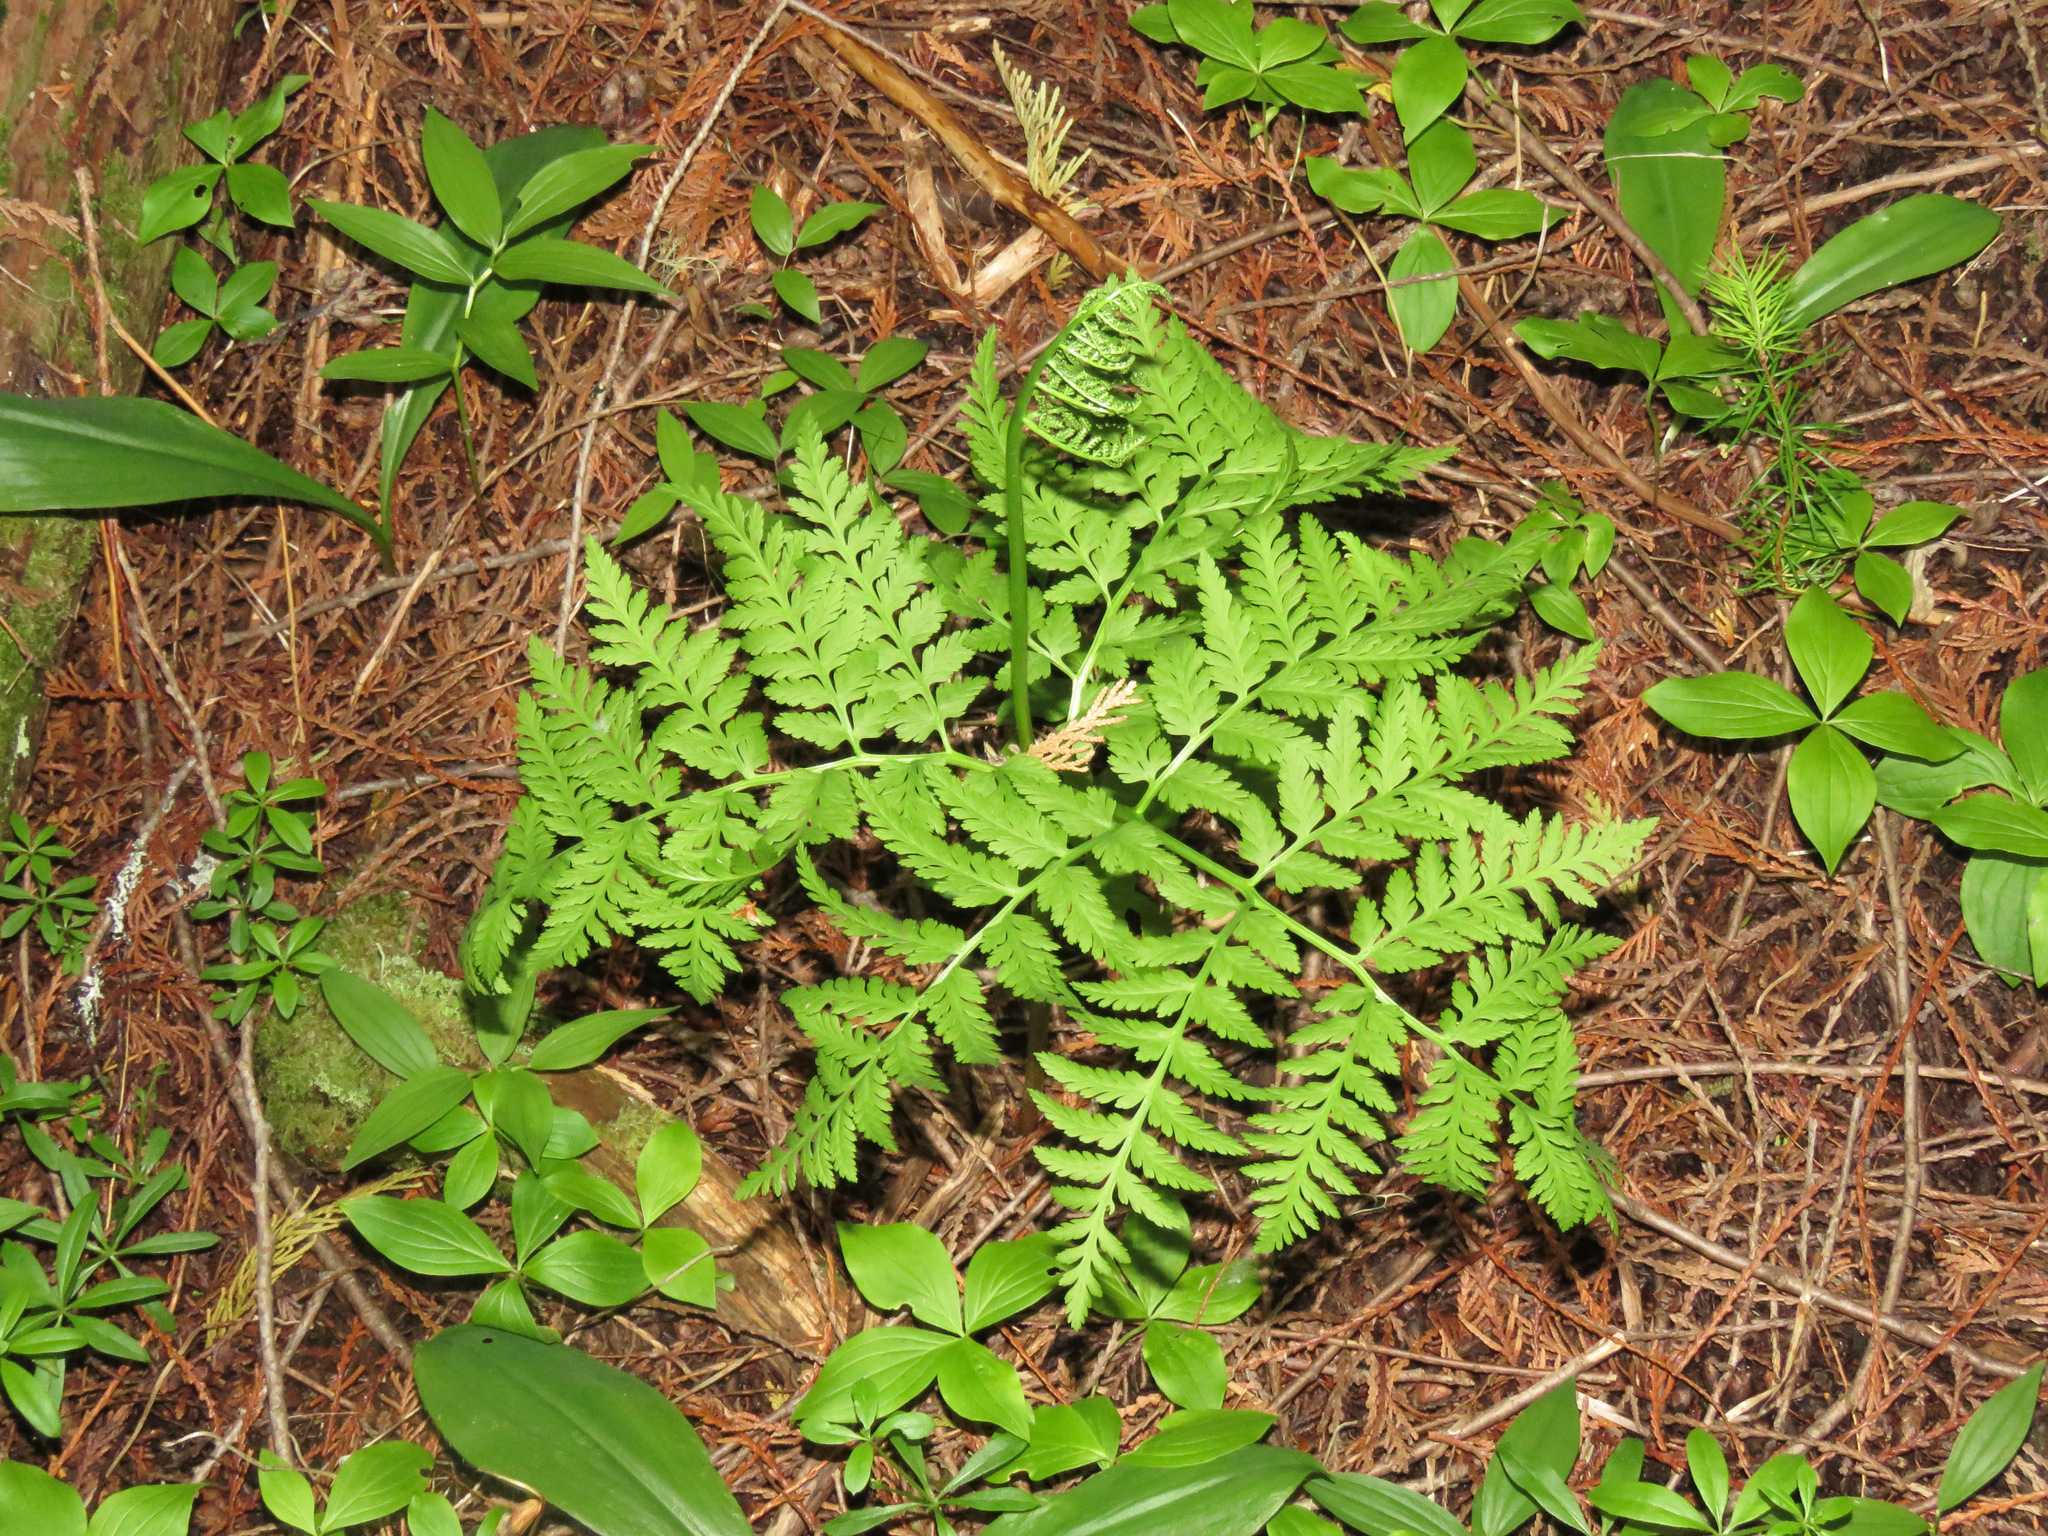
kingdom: Plantae
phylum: Tracheophyta
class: Polypodiopsida
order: Ophioglossales
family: Ophioglossaceae
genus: Botrypus
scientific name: Botrypus virginianus
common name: Common grapefern
